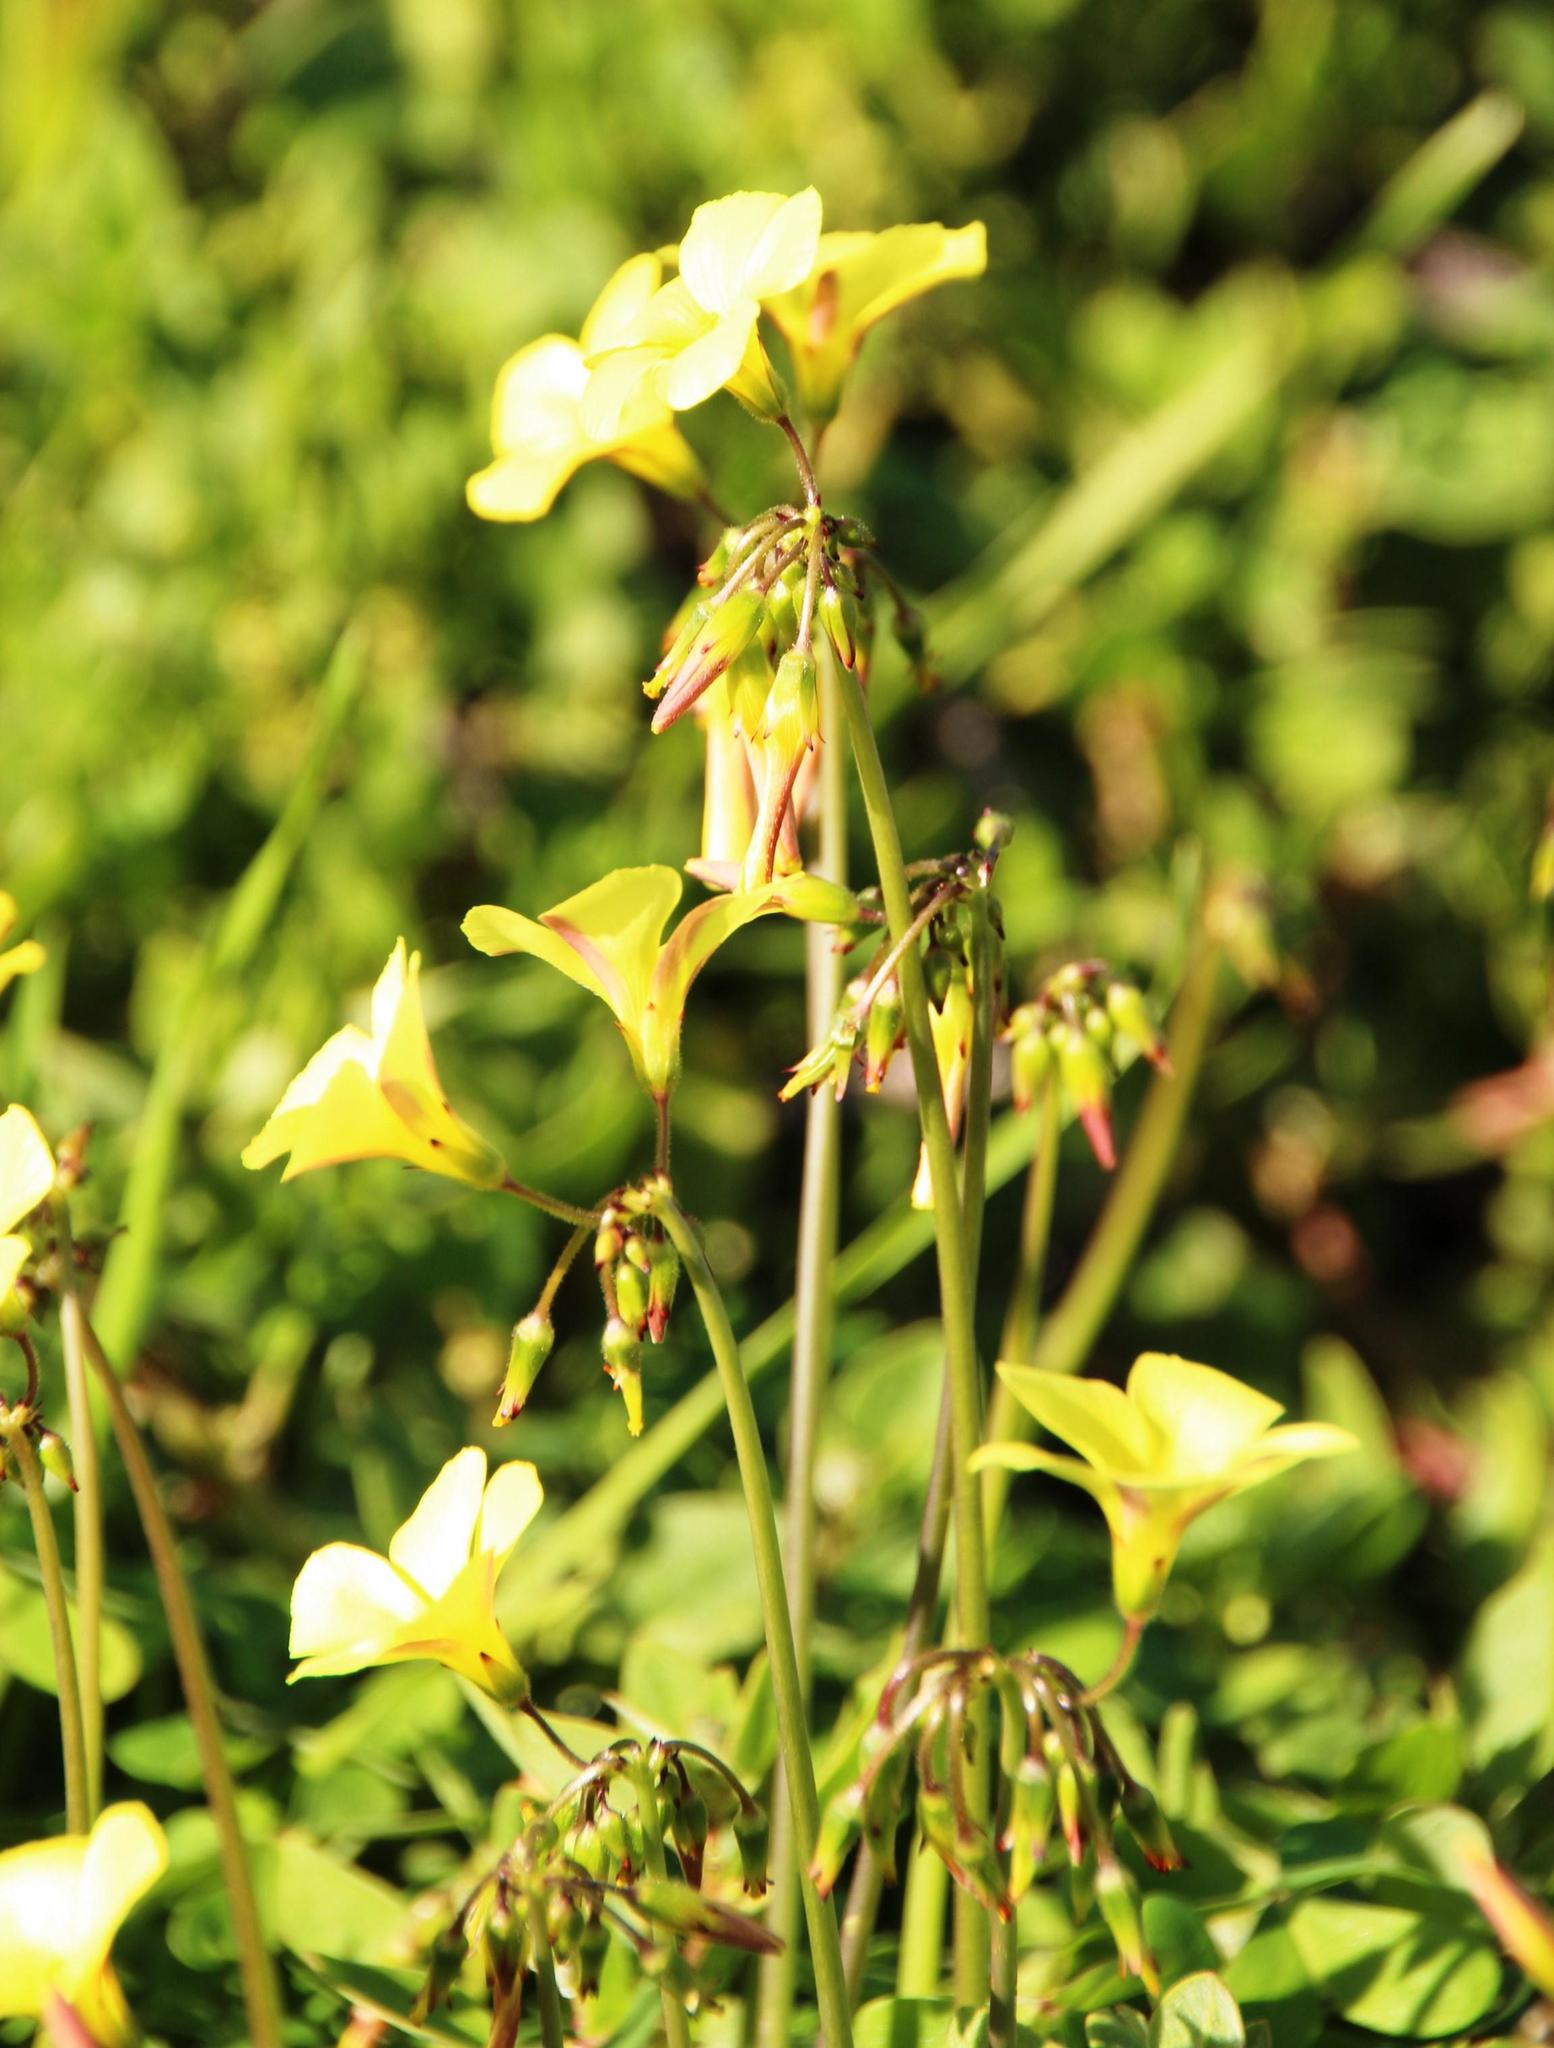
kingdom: Plantae
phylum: Tracheophyta
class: Magnoliopsida
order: Oxalidales
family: Oxalidaceae
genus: Oxalis
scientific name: Oxalis pes-caprae
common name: Bermuda-buttercup
